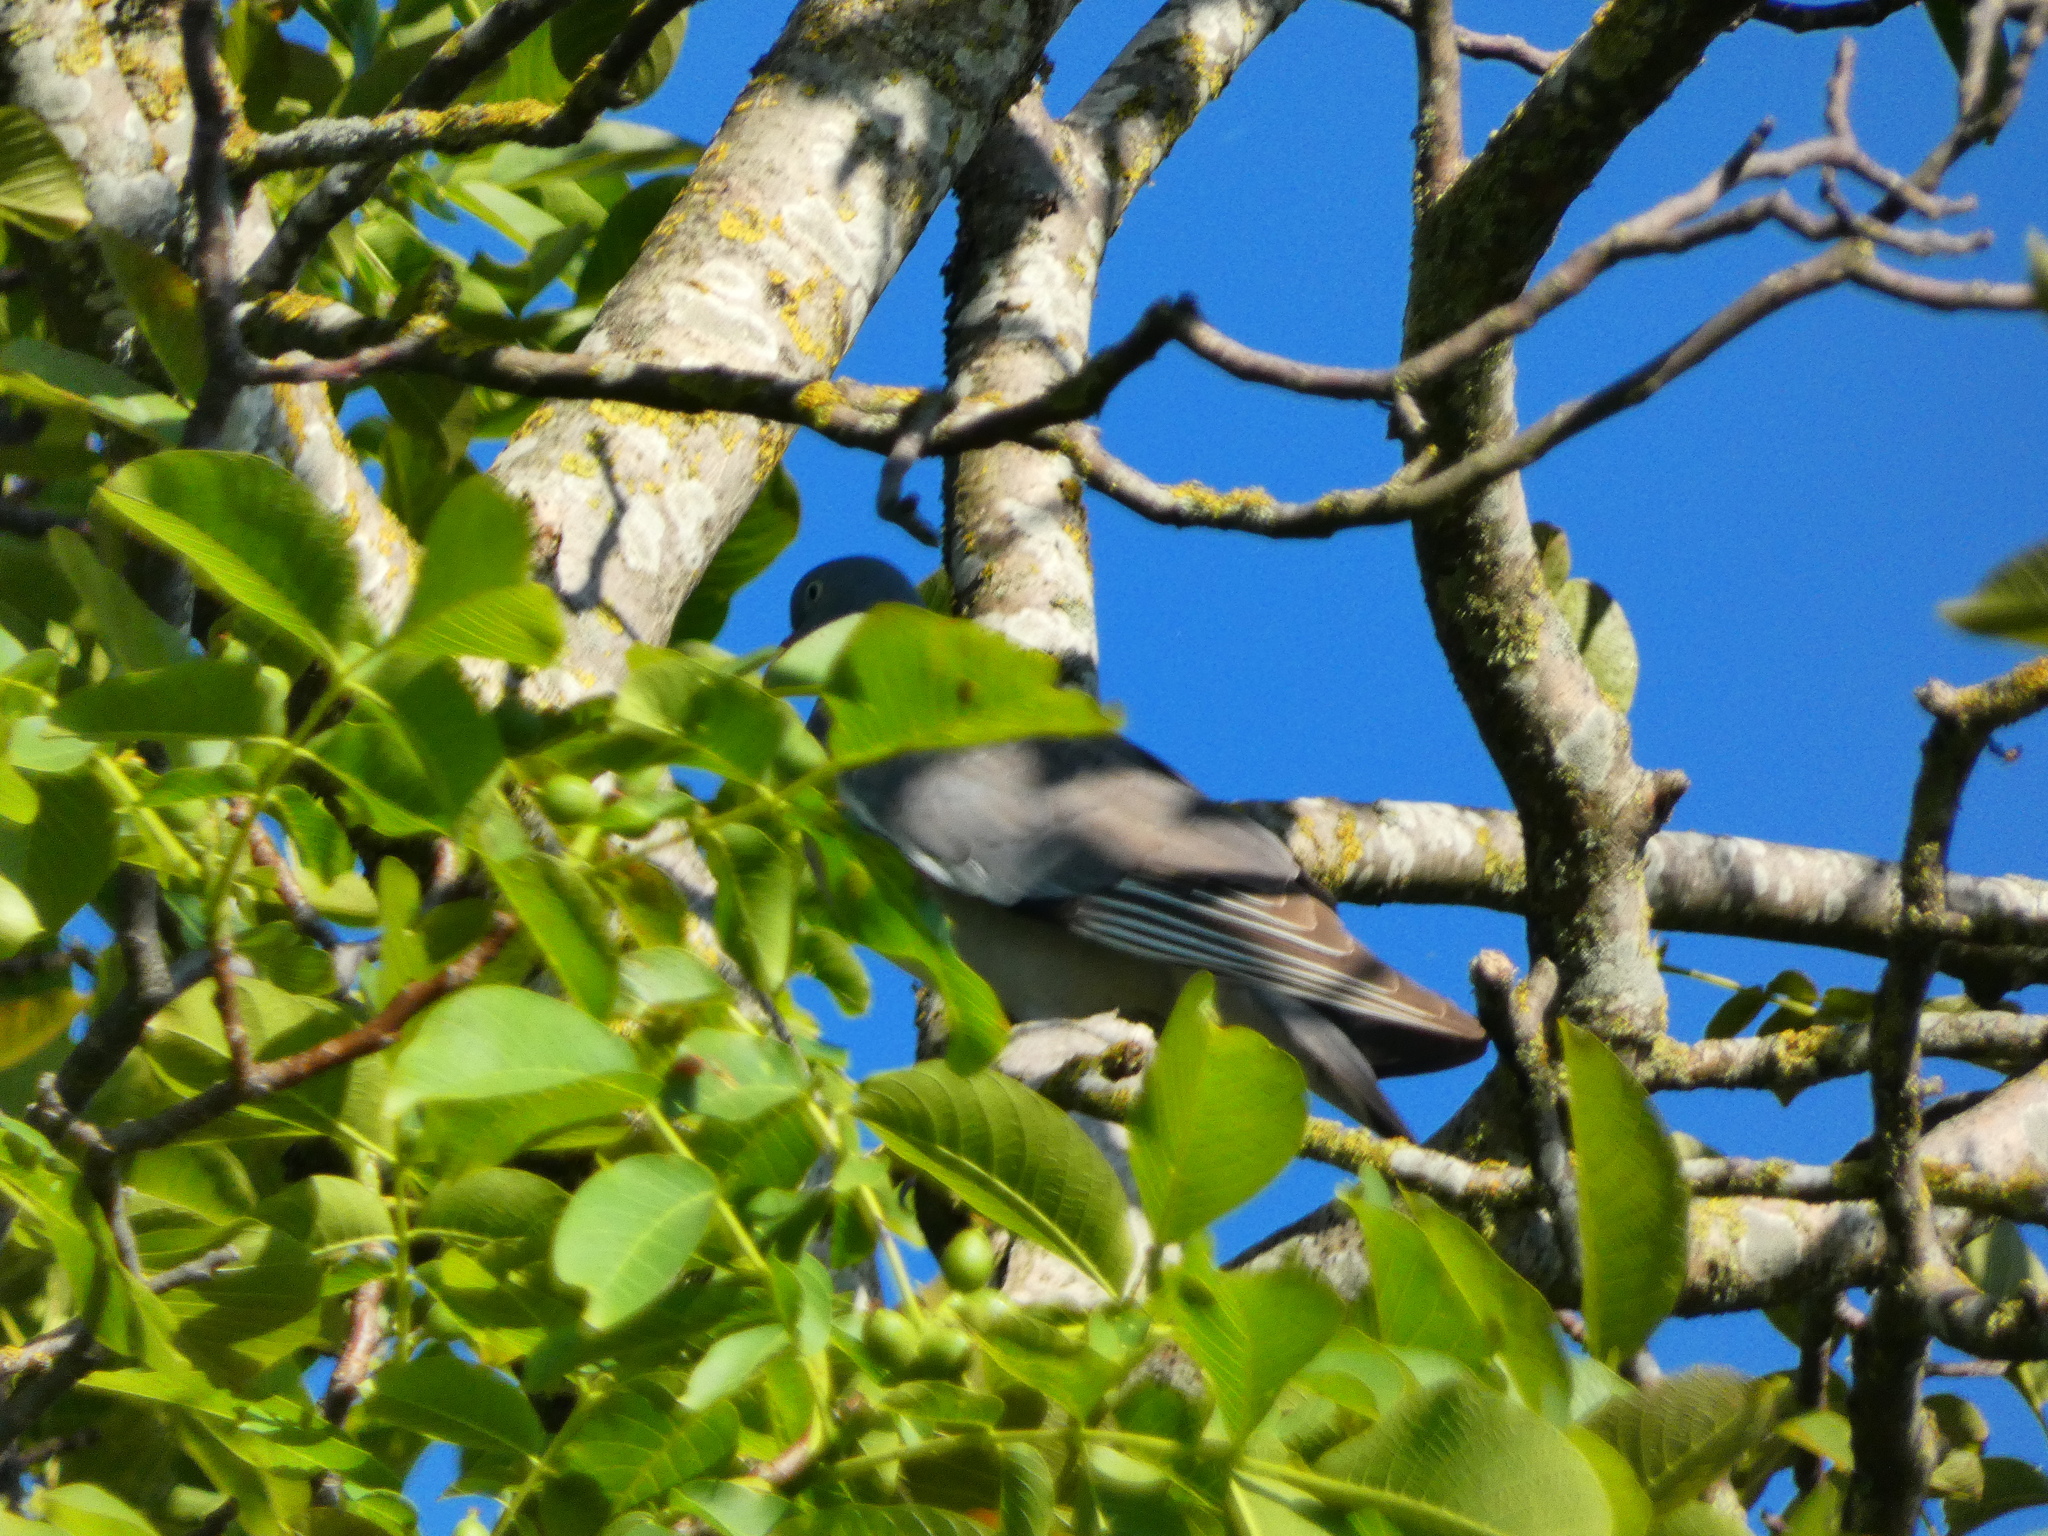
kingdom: Animalia
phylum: Chordata
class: Aves
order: Columbiformes
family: Columbidae
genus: Columba
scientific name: Columba palumbus
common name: Common wood pigeon
